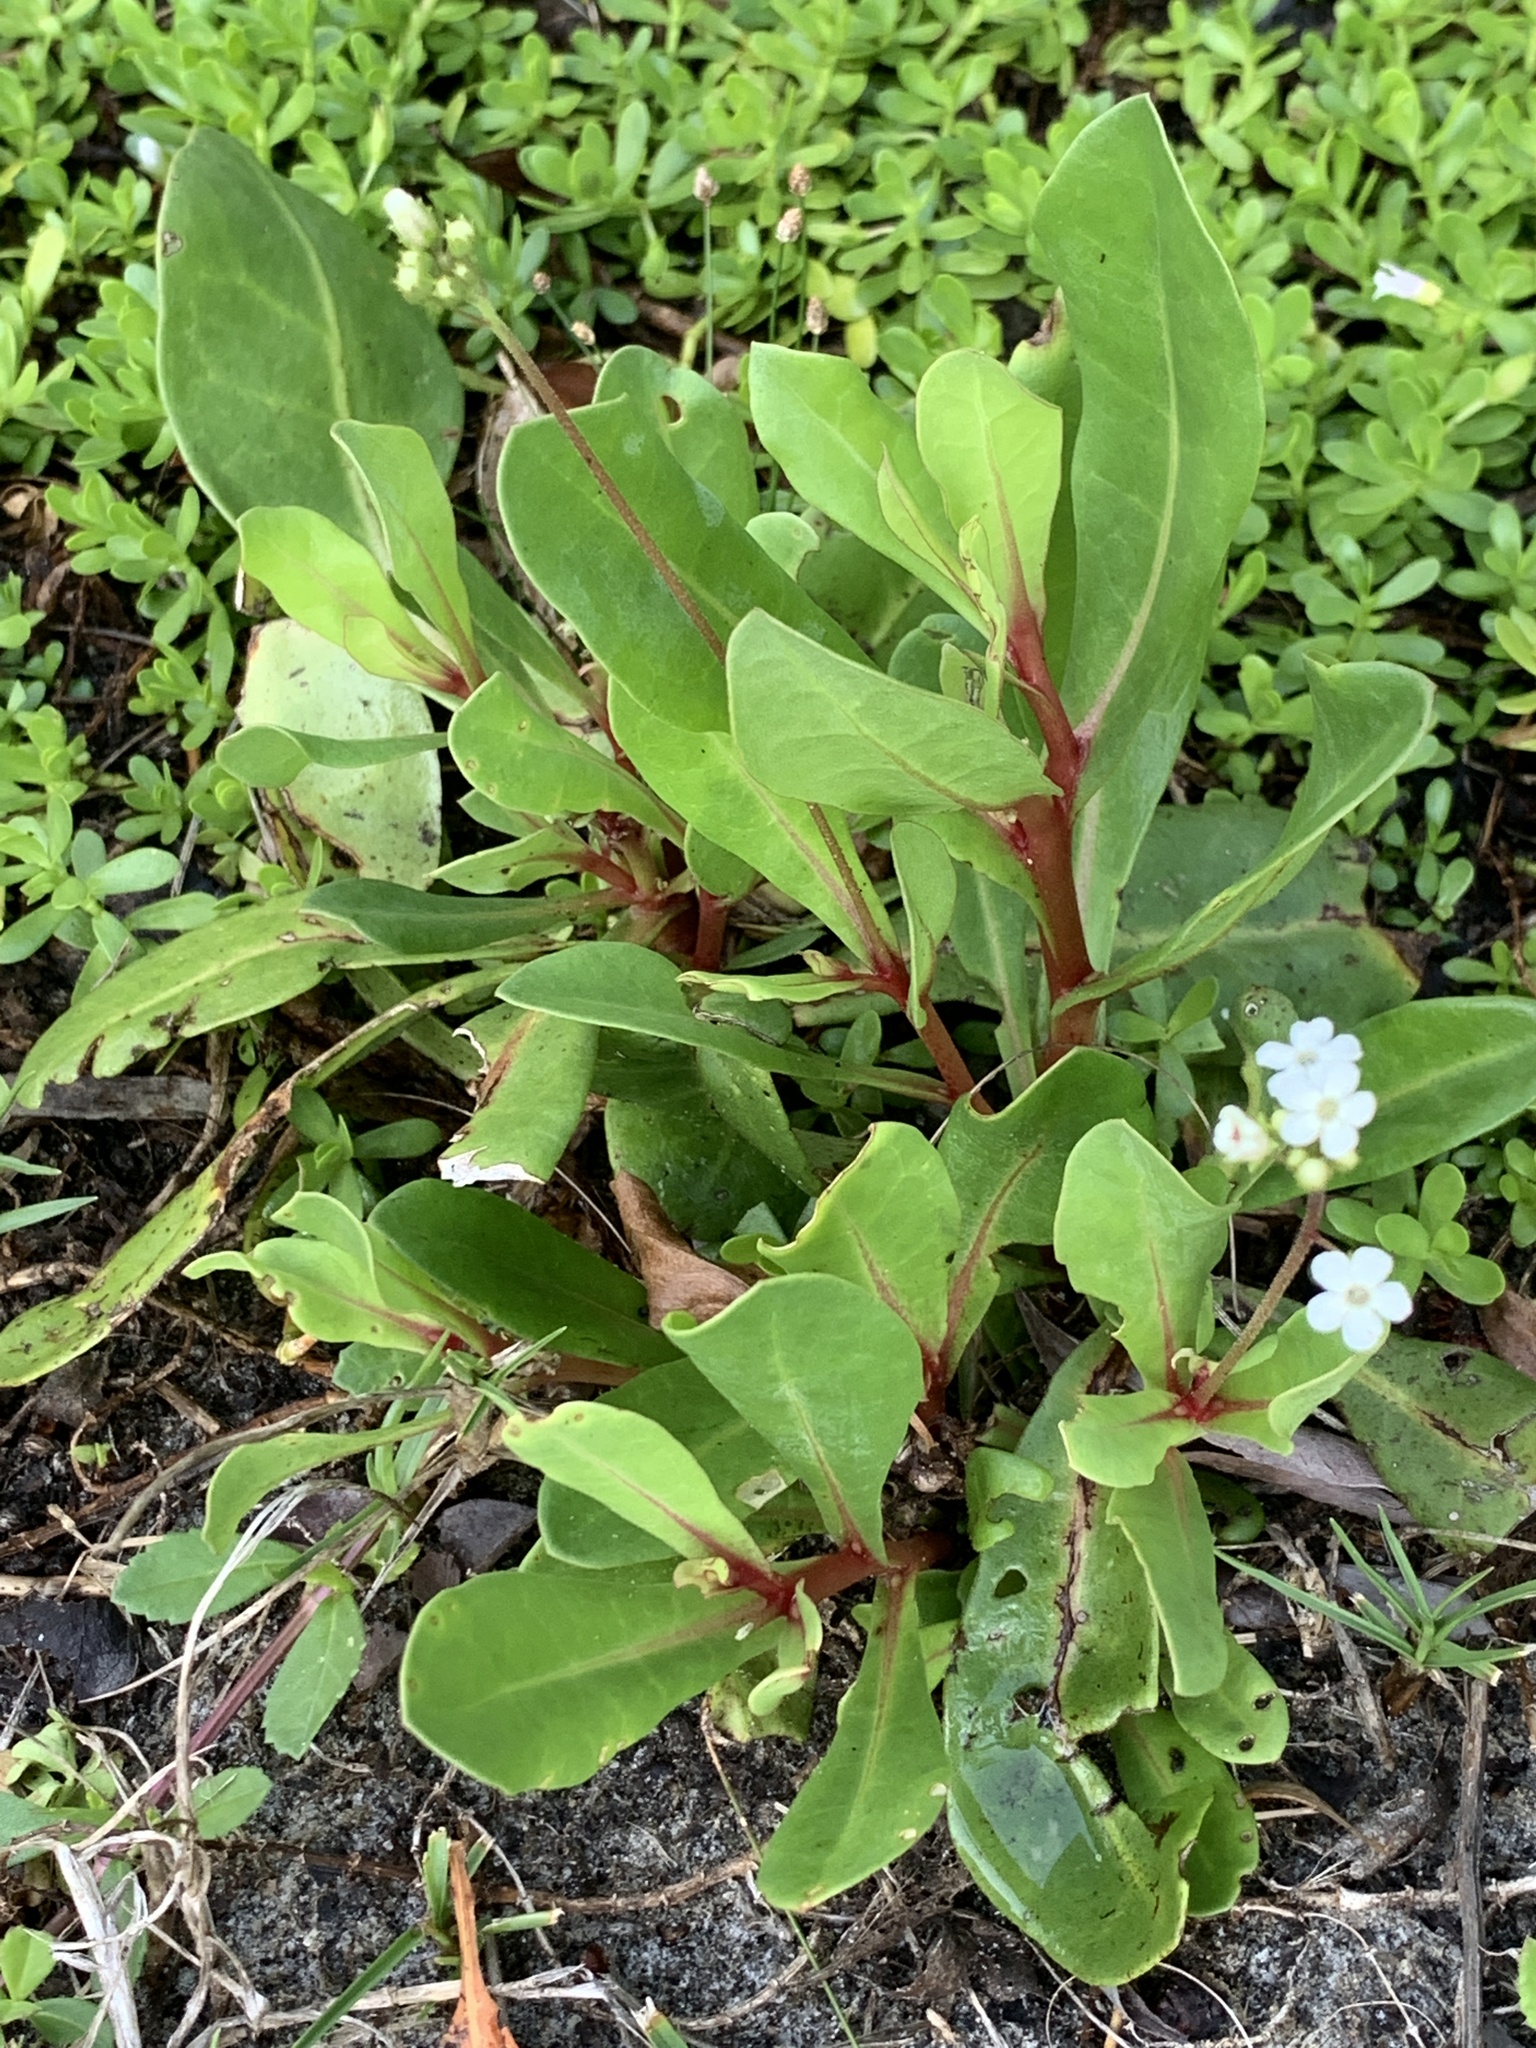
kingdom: Plantae
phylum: Tracheophyta
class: Magnoliopsida
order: Ericales
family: Primulaceae
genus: Samolus
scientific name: Samolus ebracteatus
